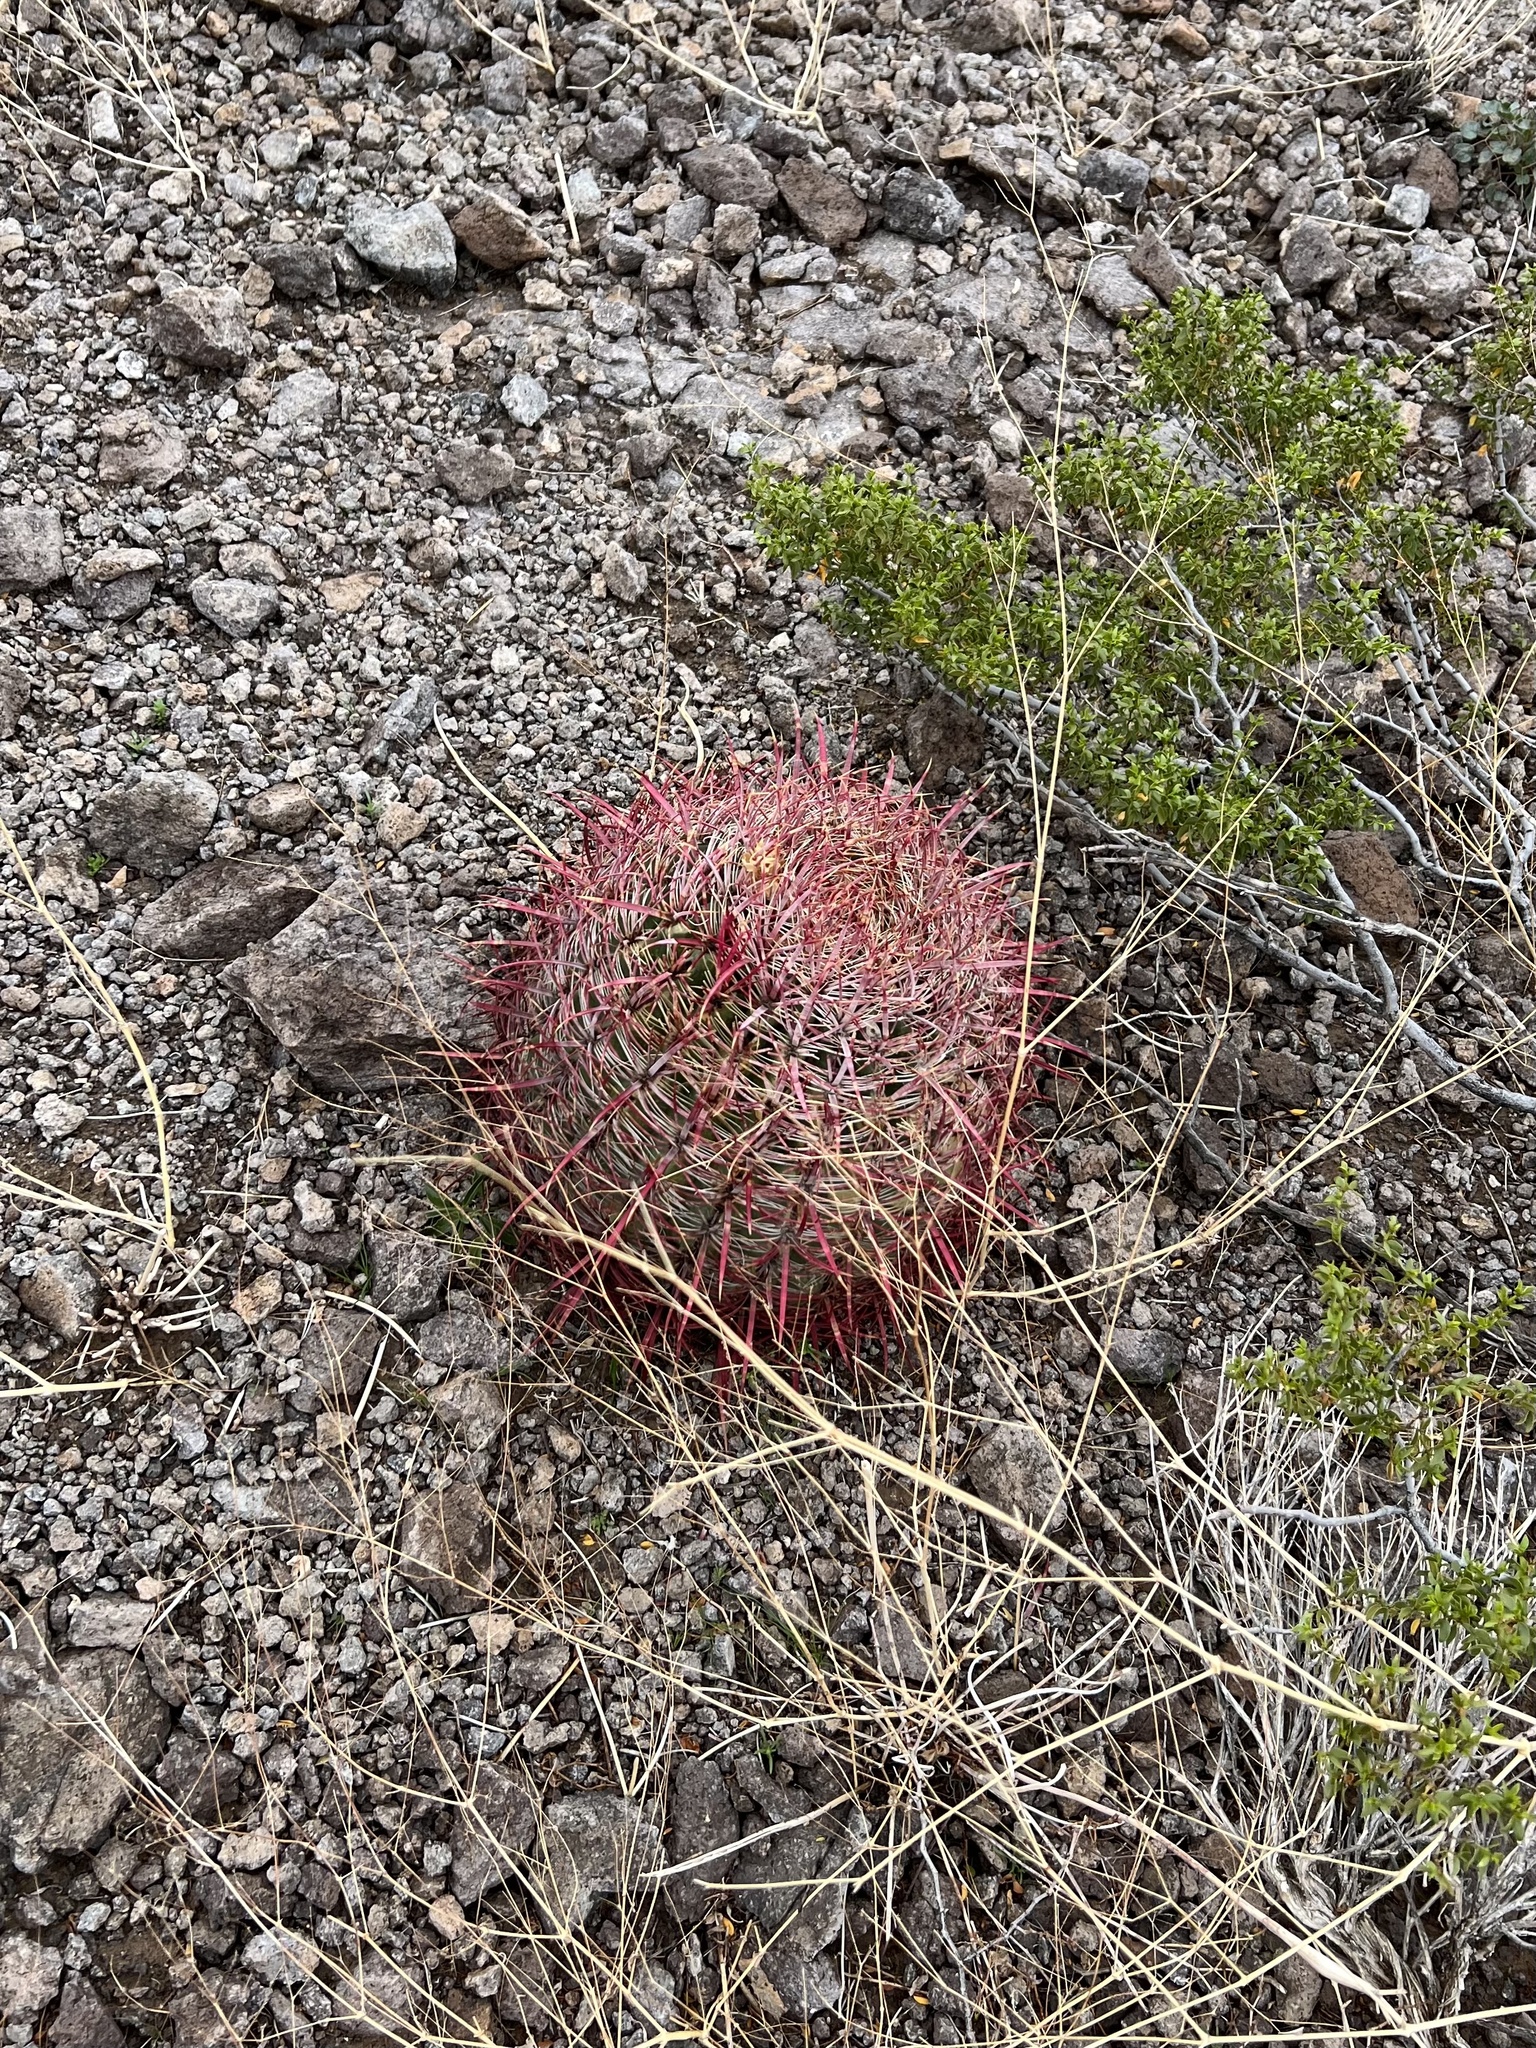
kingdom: Plantae
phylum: Tracheophyta
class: Magnoliopsida
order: Caryophyllales
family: Cactaceae
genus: Ferocactus
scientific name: Ferocactus cylindraceus
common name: California barrel cactus
